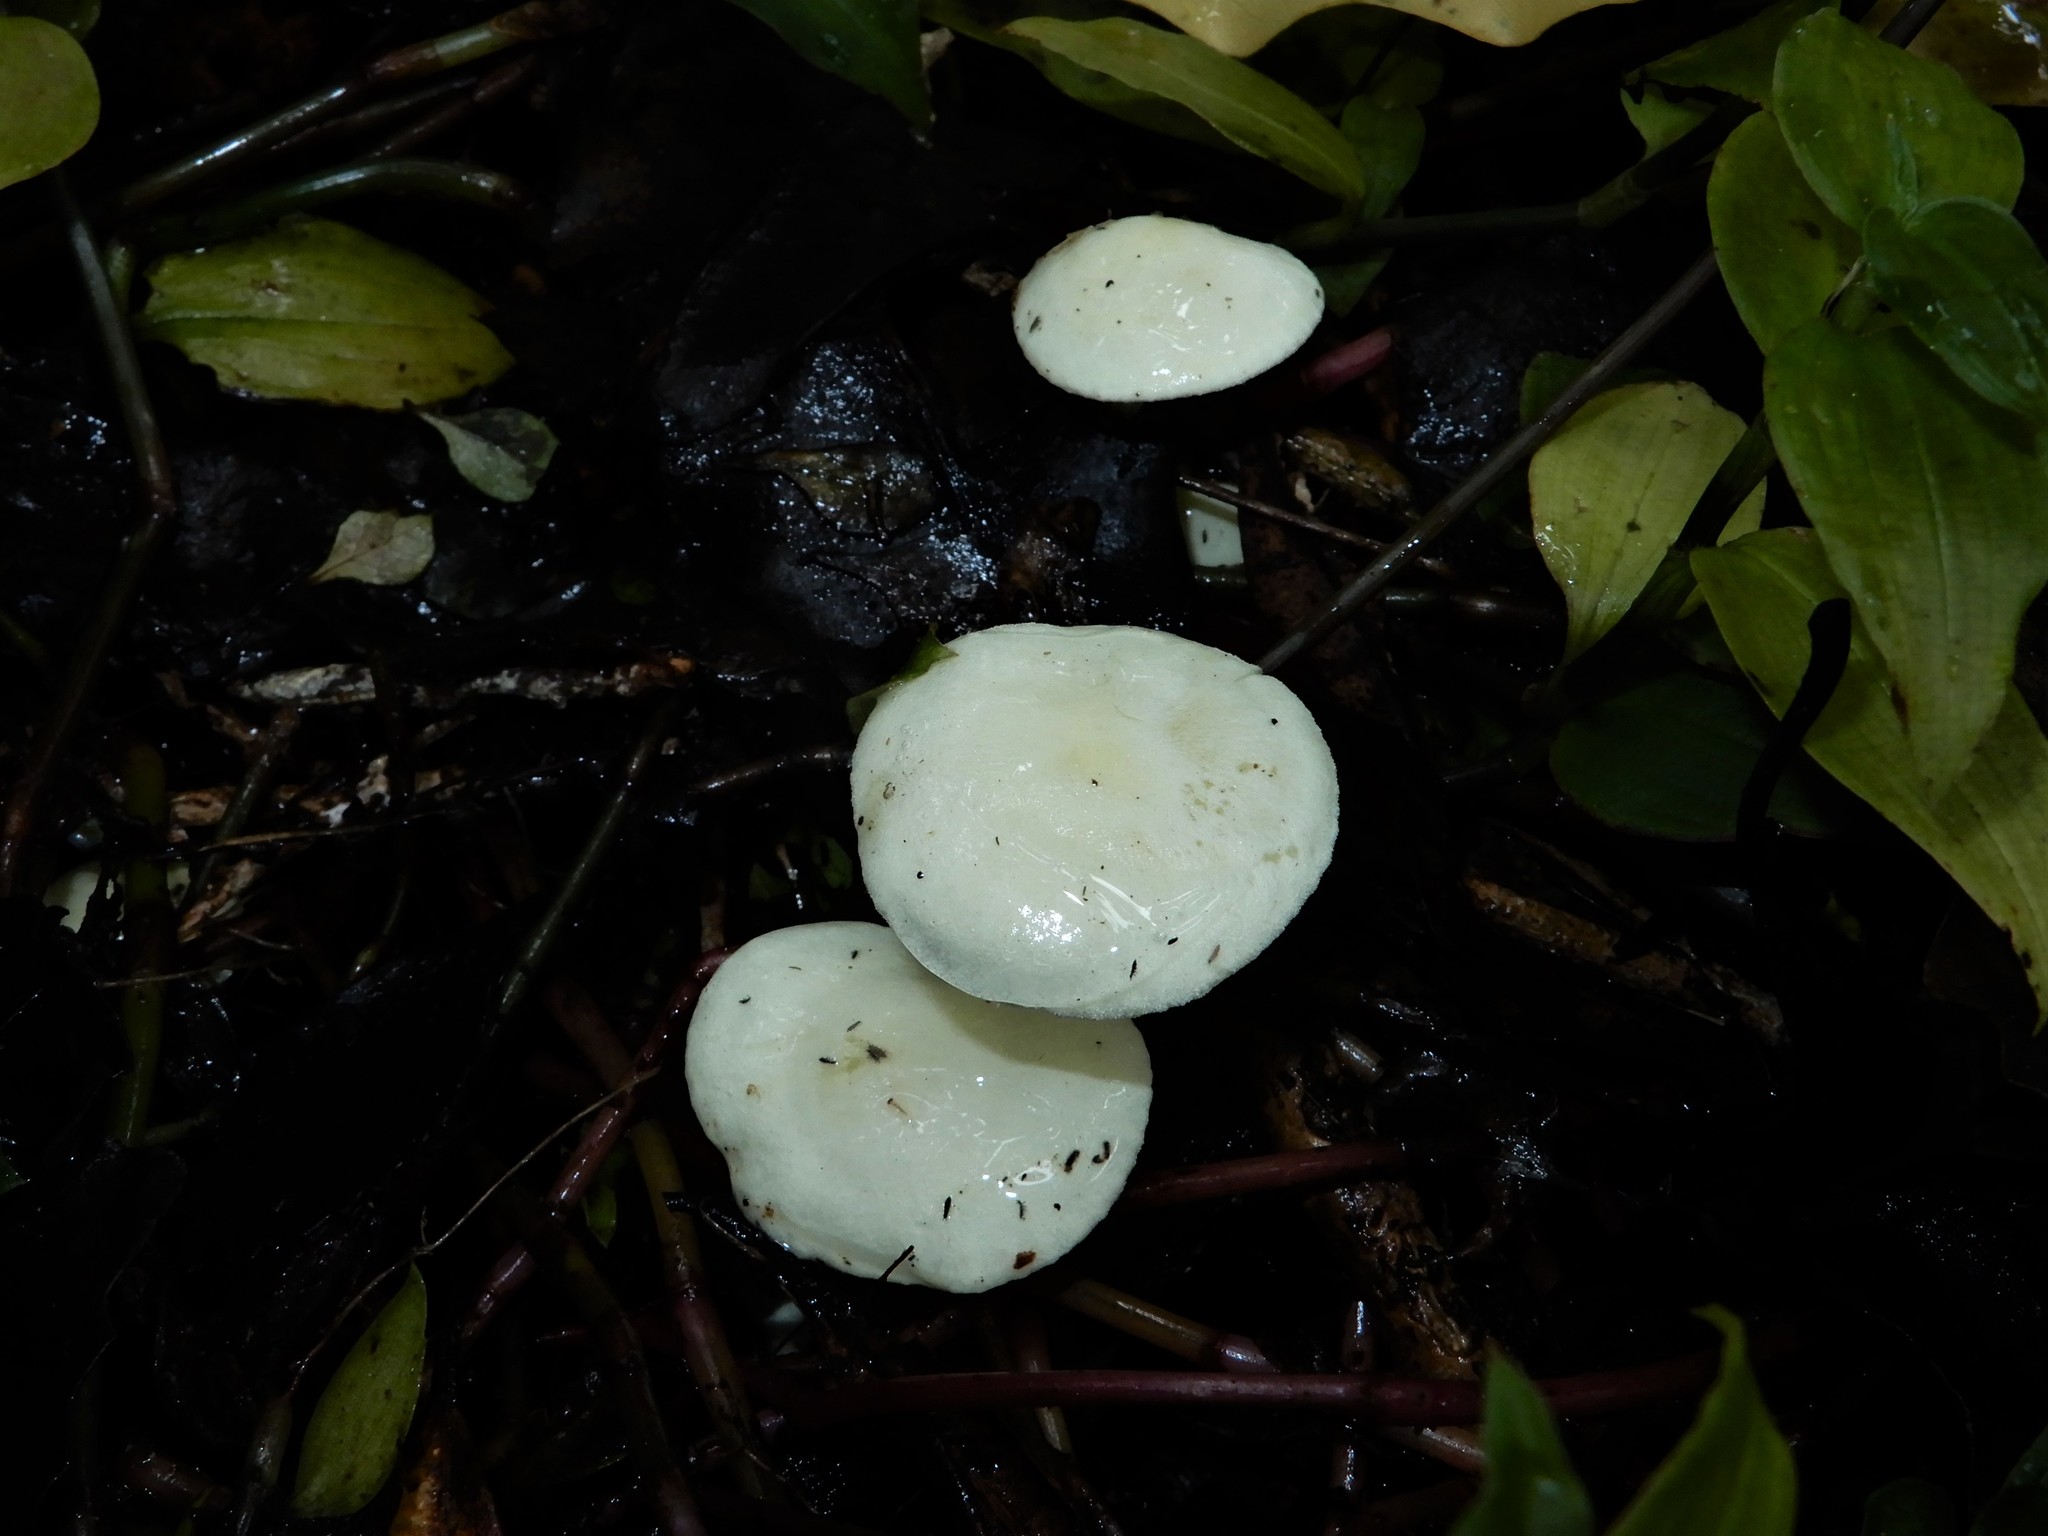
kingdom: Fungi
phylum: Basidiomycota
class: Agaricomycetes
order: Agaricales
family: Hygrophoraceae
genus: Hygrophorus
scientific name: Hygrophorus involutus
